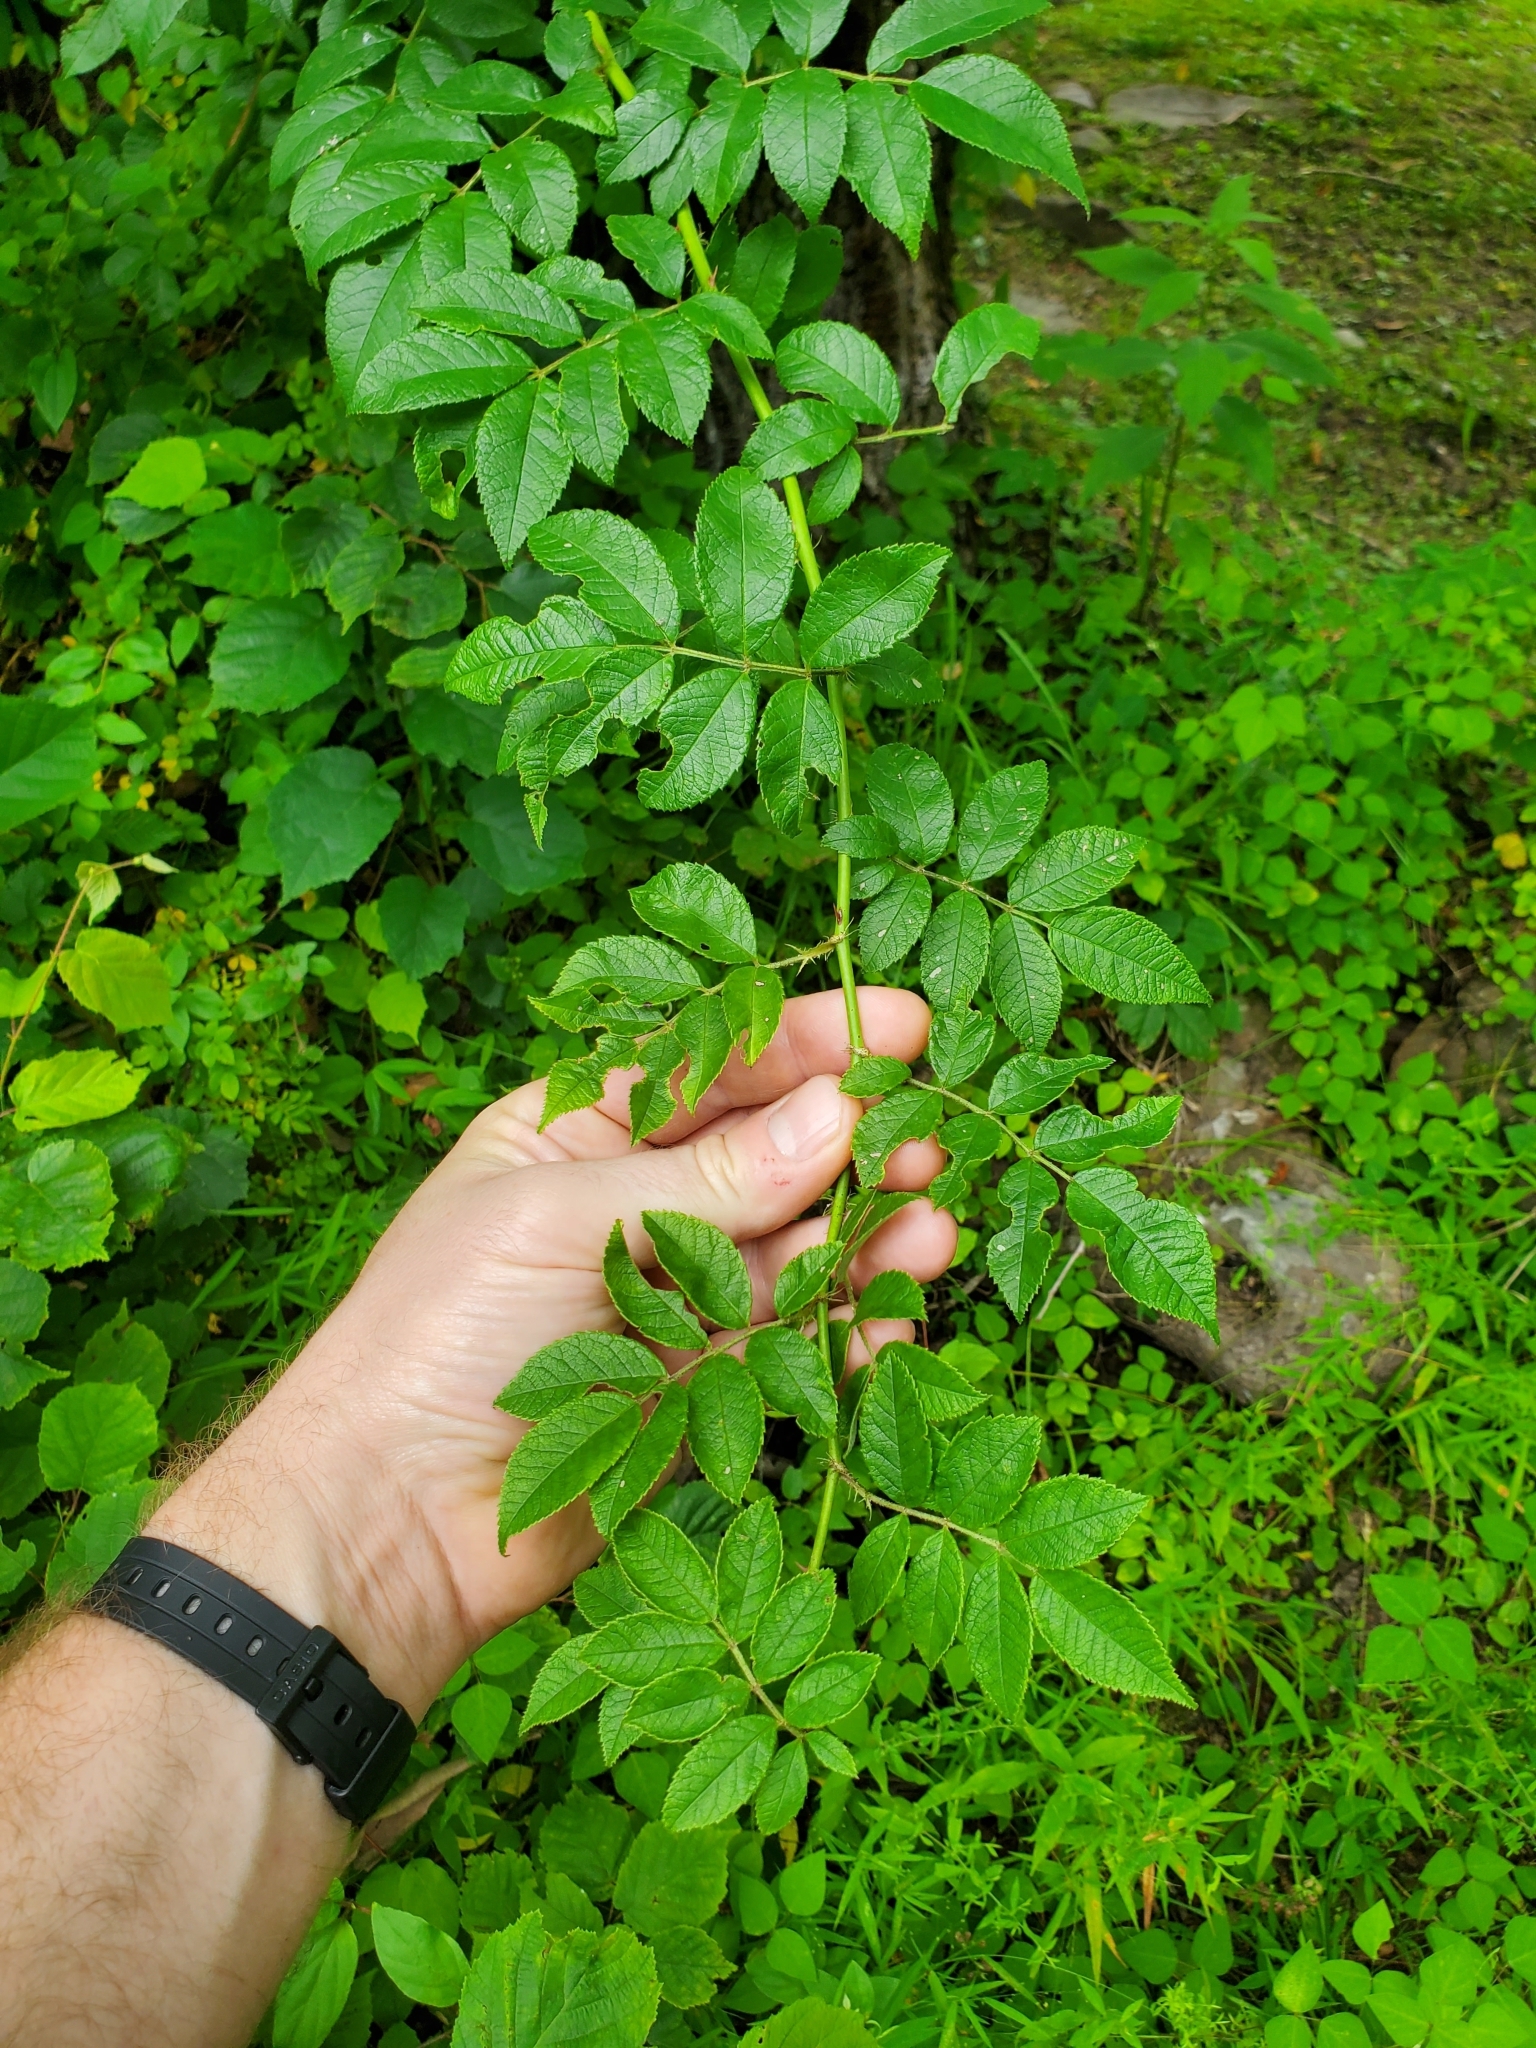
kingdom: Plantae
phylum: Tracheophyta
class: Magnoliopsida
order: Rosales
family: Rosaceae
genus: Rosa
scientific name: Rosa multiflora
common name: Multiflora rose
